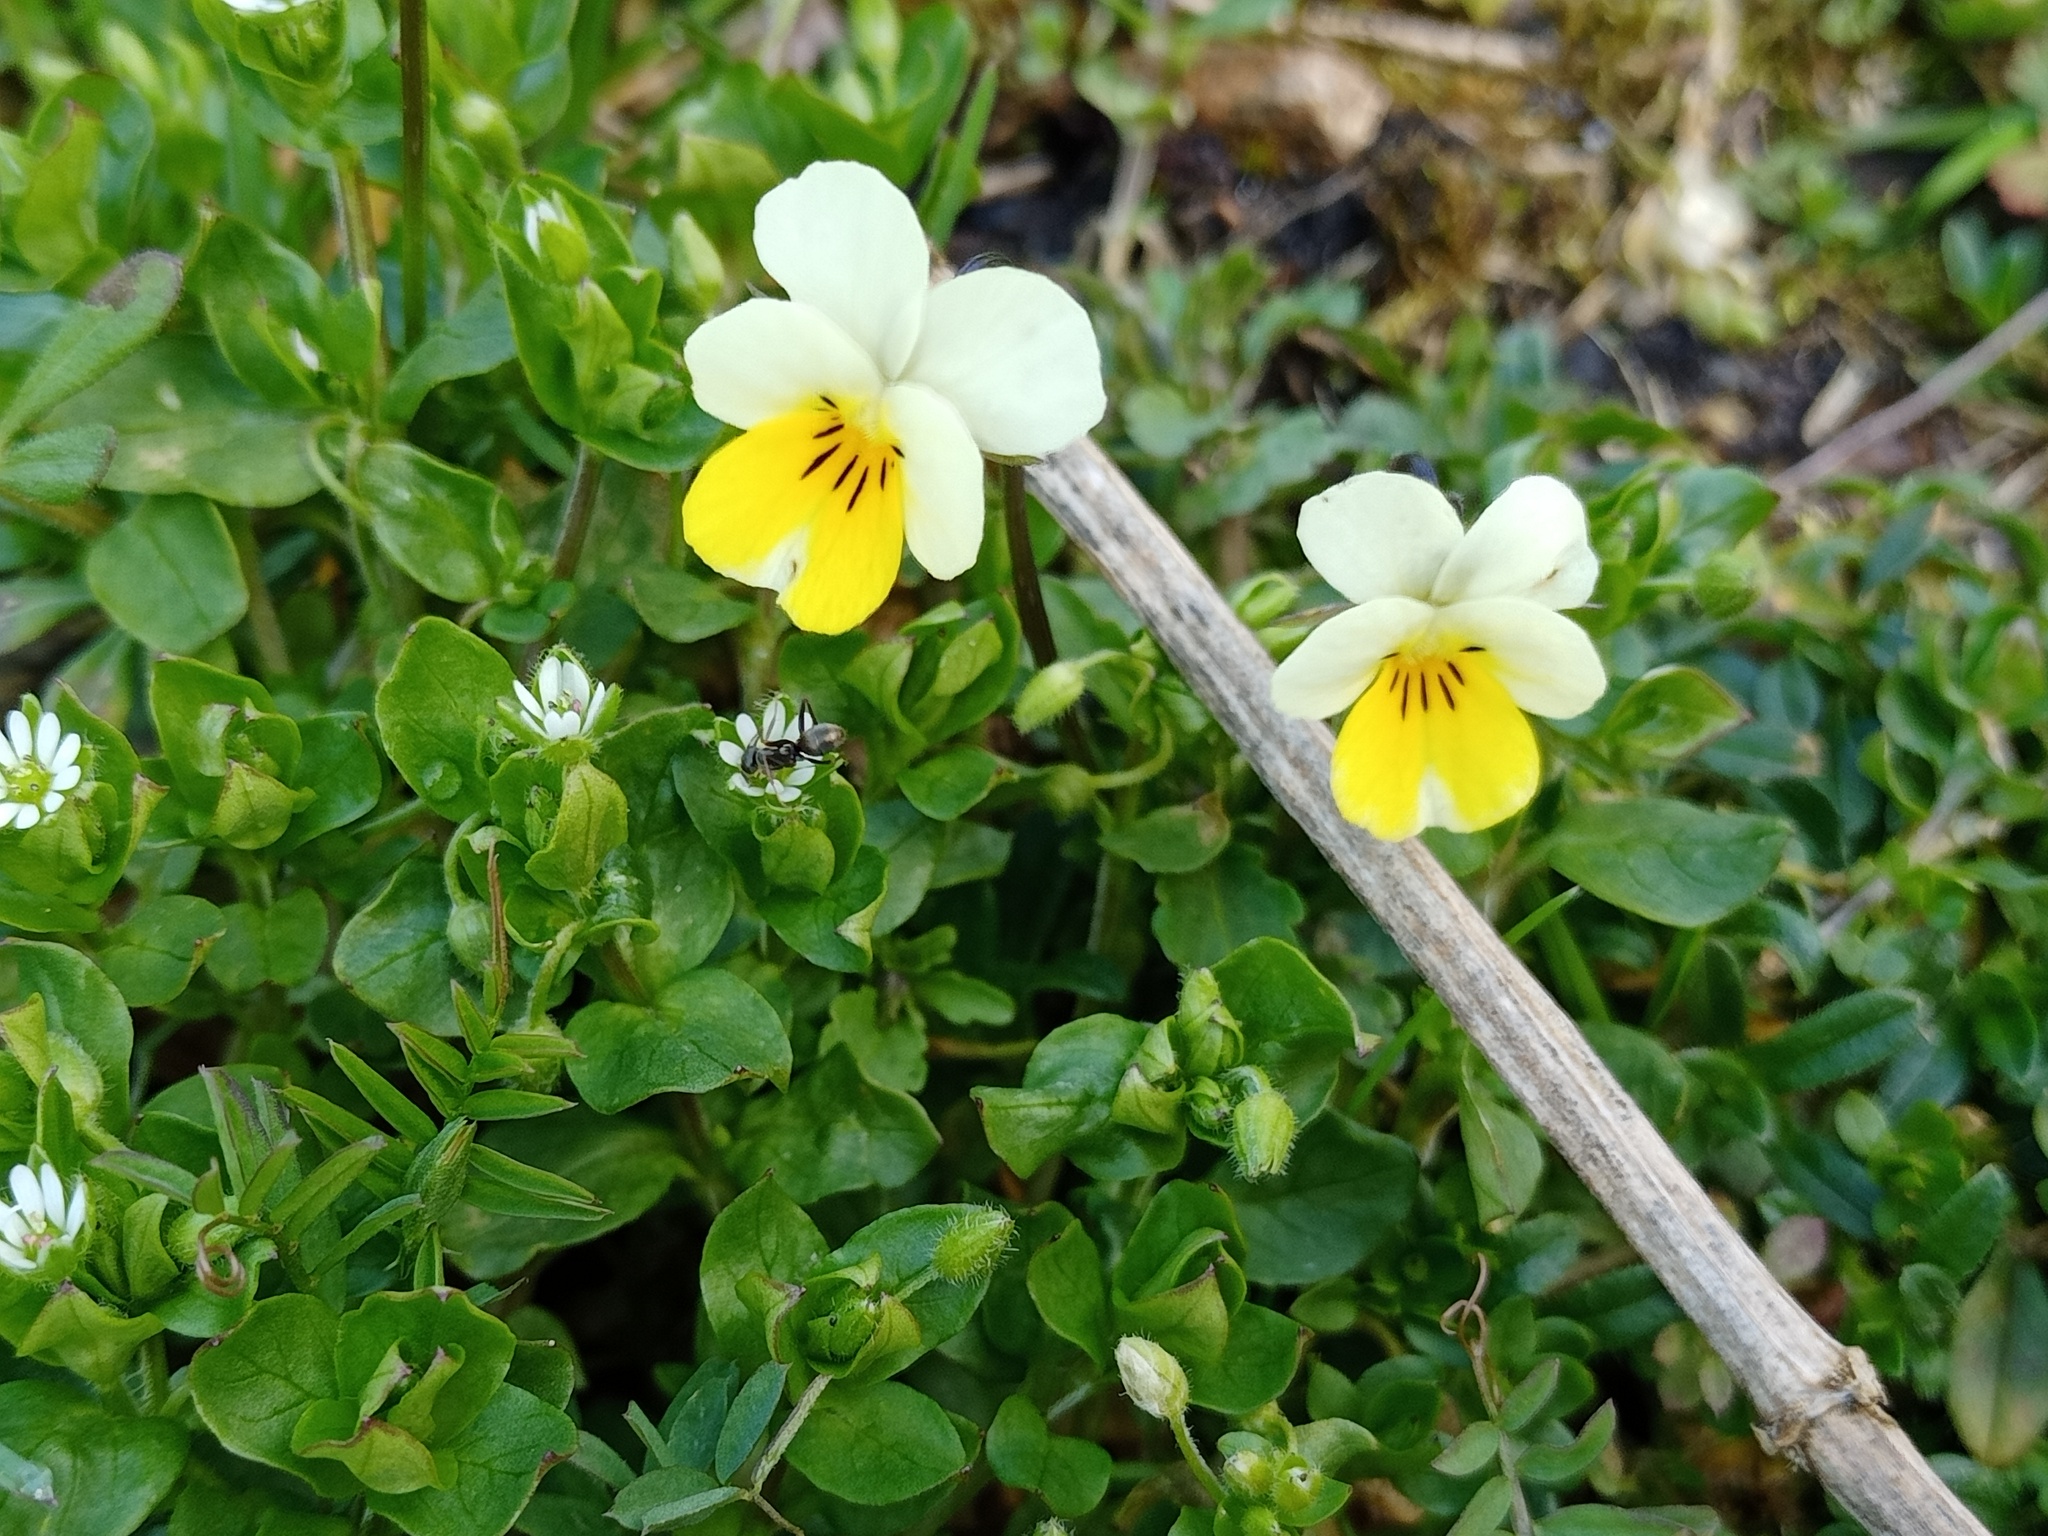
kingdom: Plantae
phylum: Tracheophyta
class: Magnoliopsida
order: Malpighiales
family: Violaceae
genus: Viola
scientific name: Viola arvensis
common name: Field pansy
